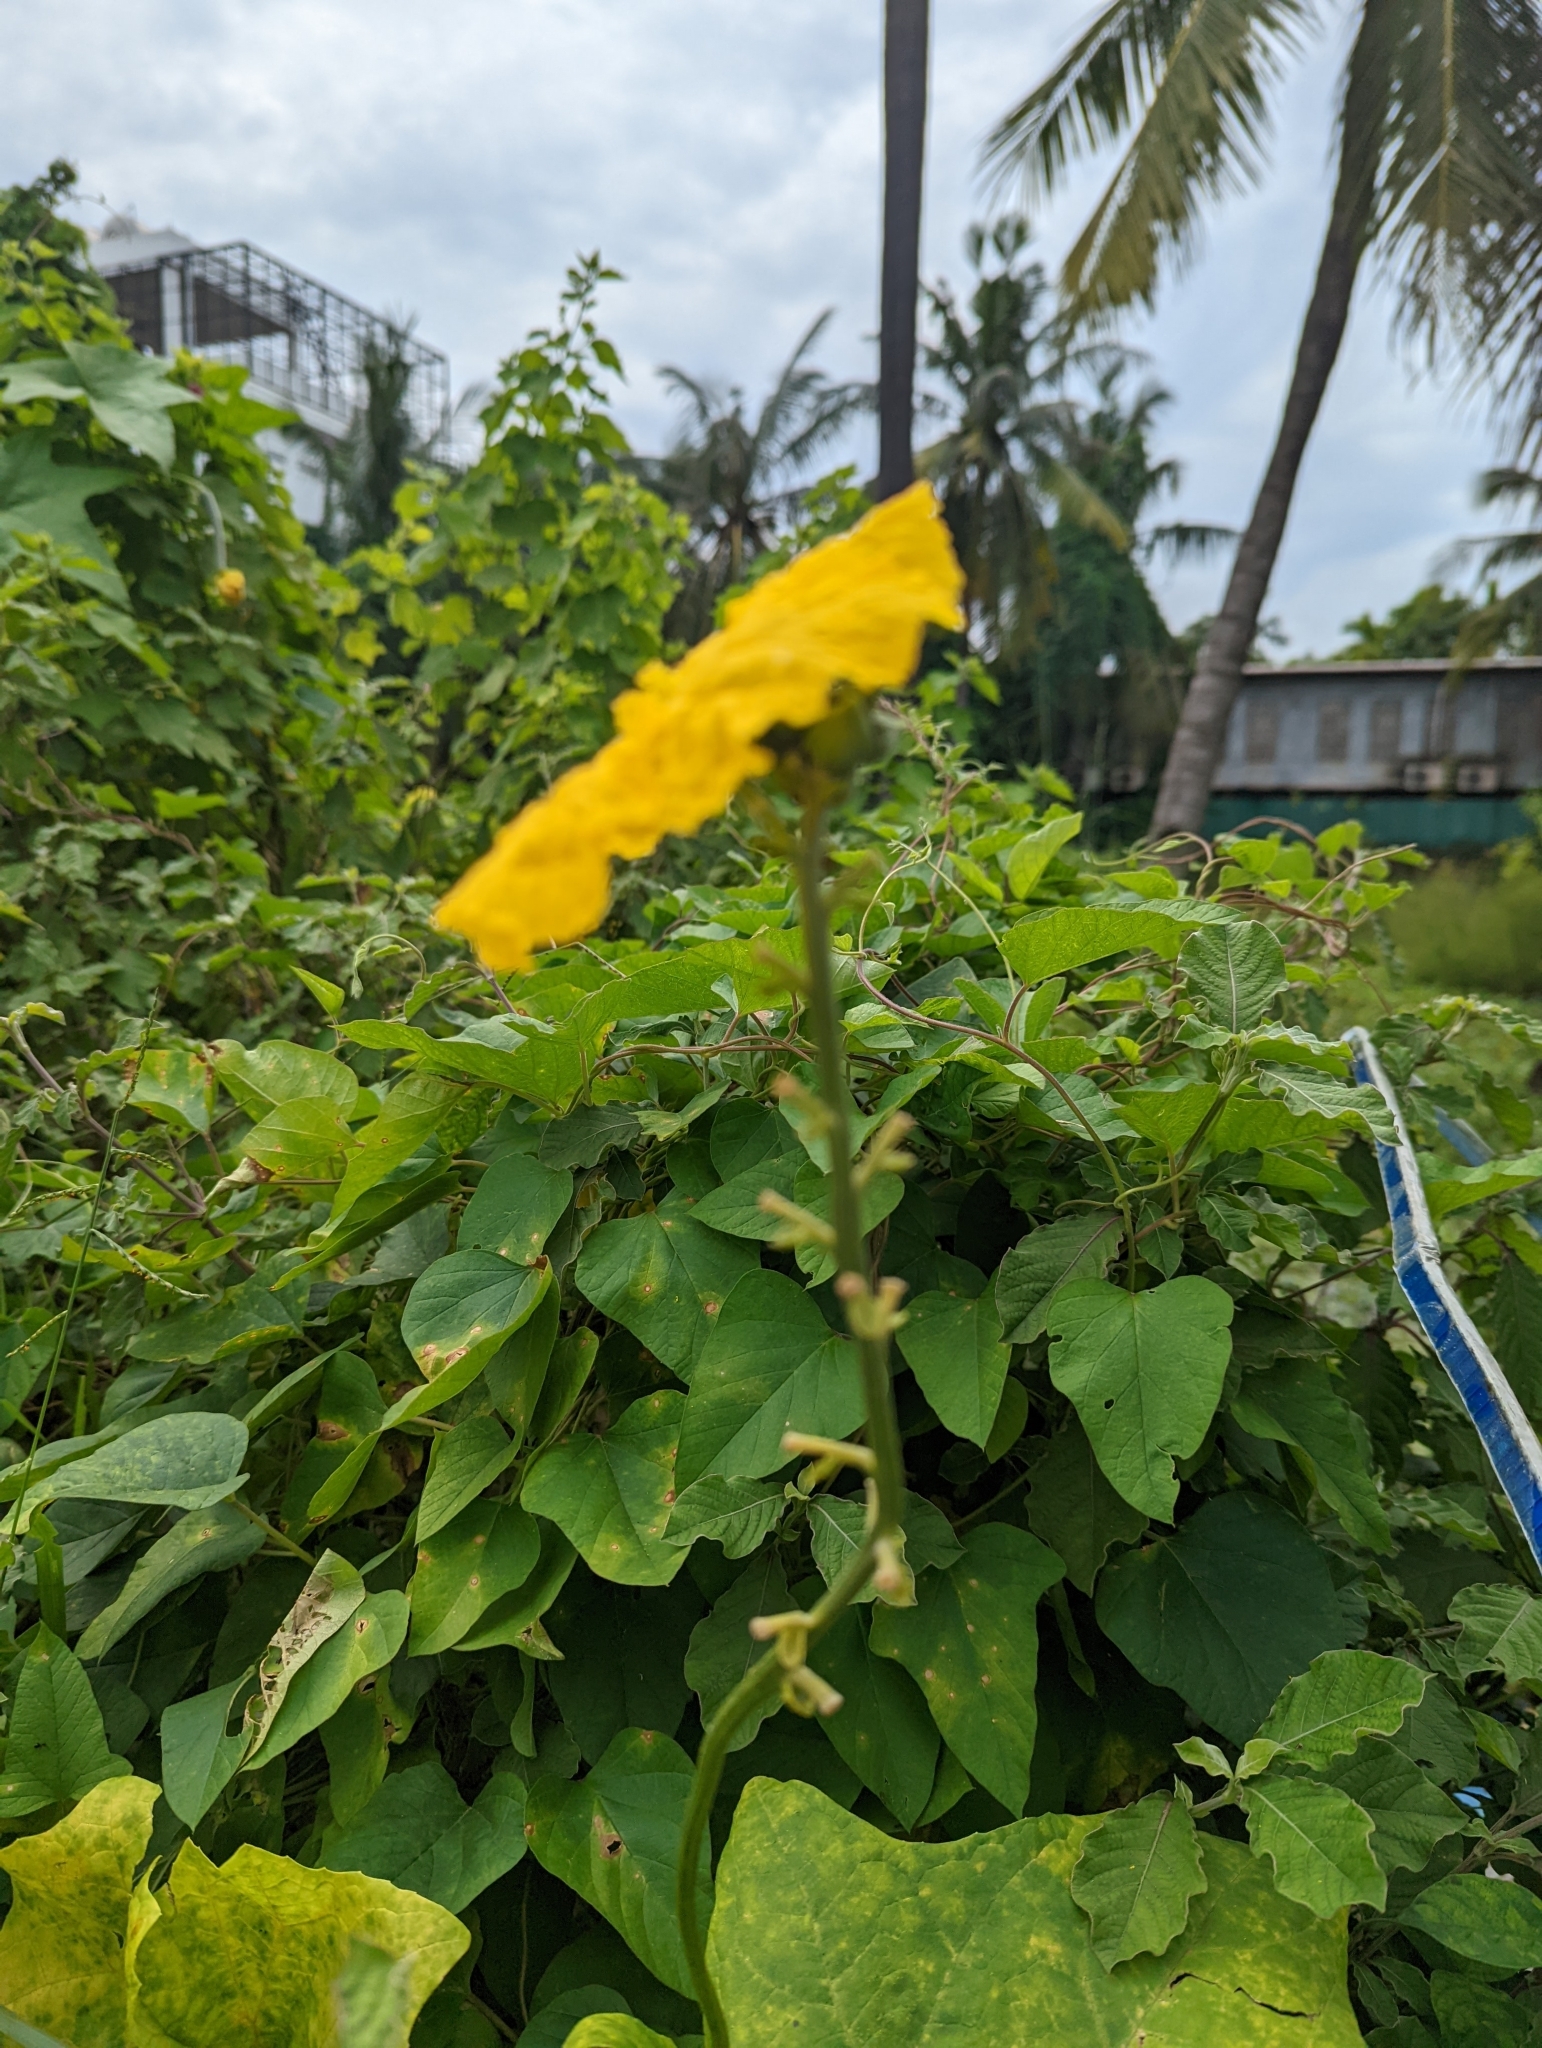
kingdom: Plantae
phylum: Tracheophyta
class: Magnoliopsida
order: Cucurbitales
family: Cucurbitaceae
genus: Luffa
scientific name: Luffa aegyptiaca
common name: Sponge gourd
